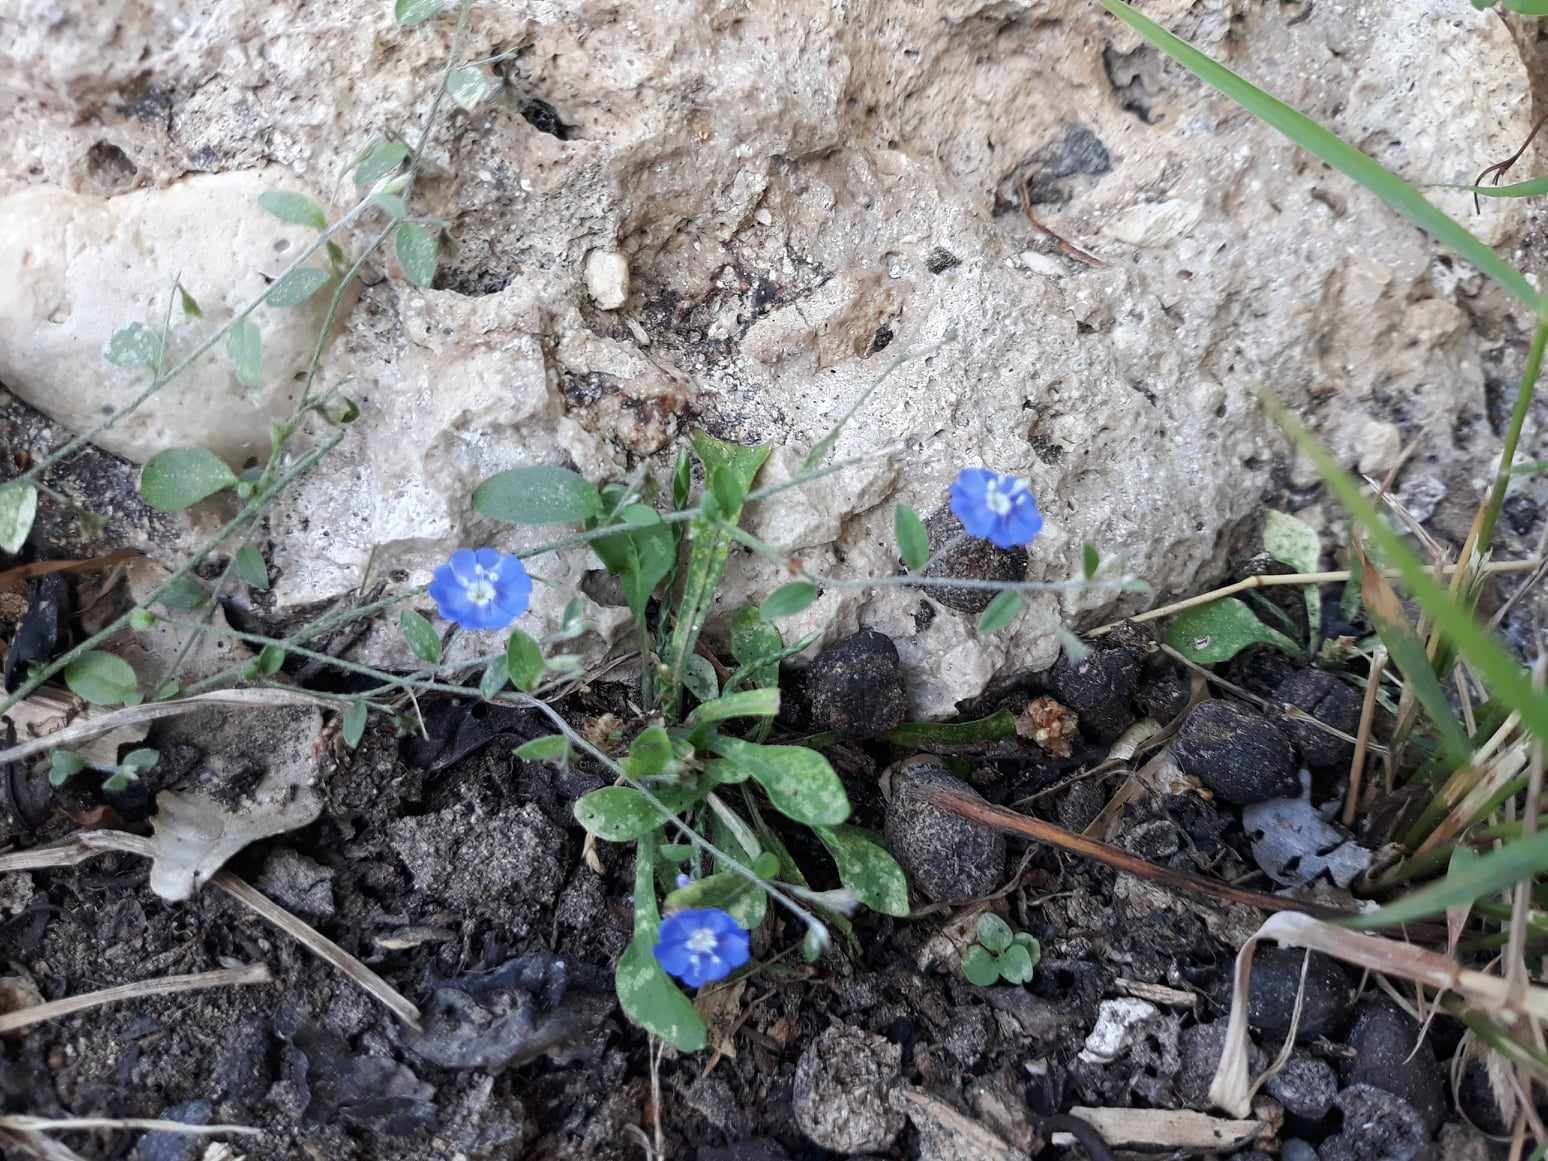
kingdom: Plantae
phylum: Tracheophyta
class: Magnoliopsida
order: Solanales
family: Convolvulaceae
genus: Evolvulus
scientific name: Evolvulus alsinoides
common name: Slender dwarf morning-glory
